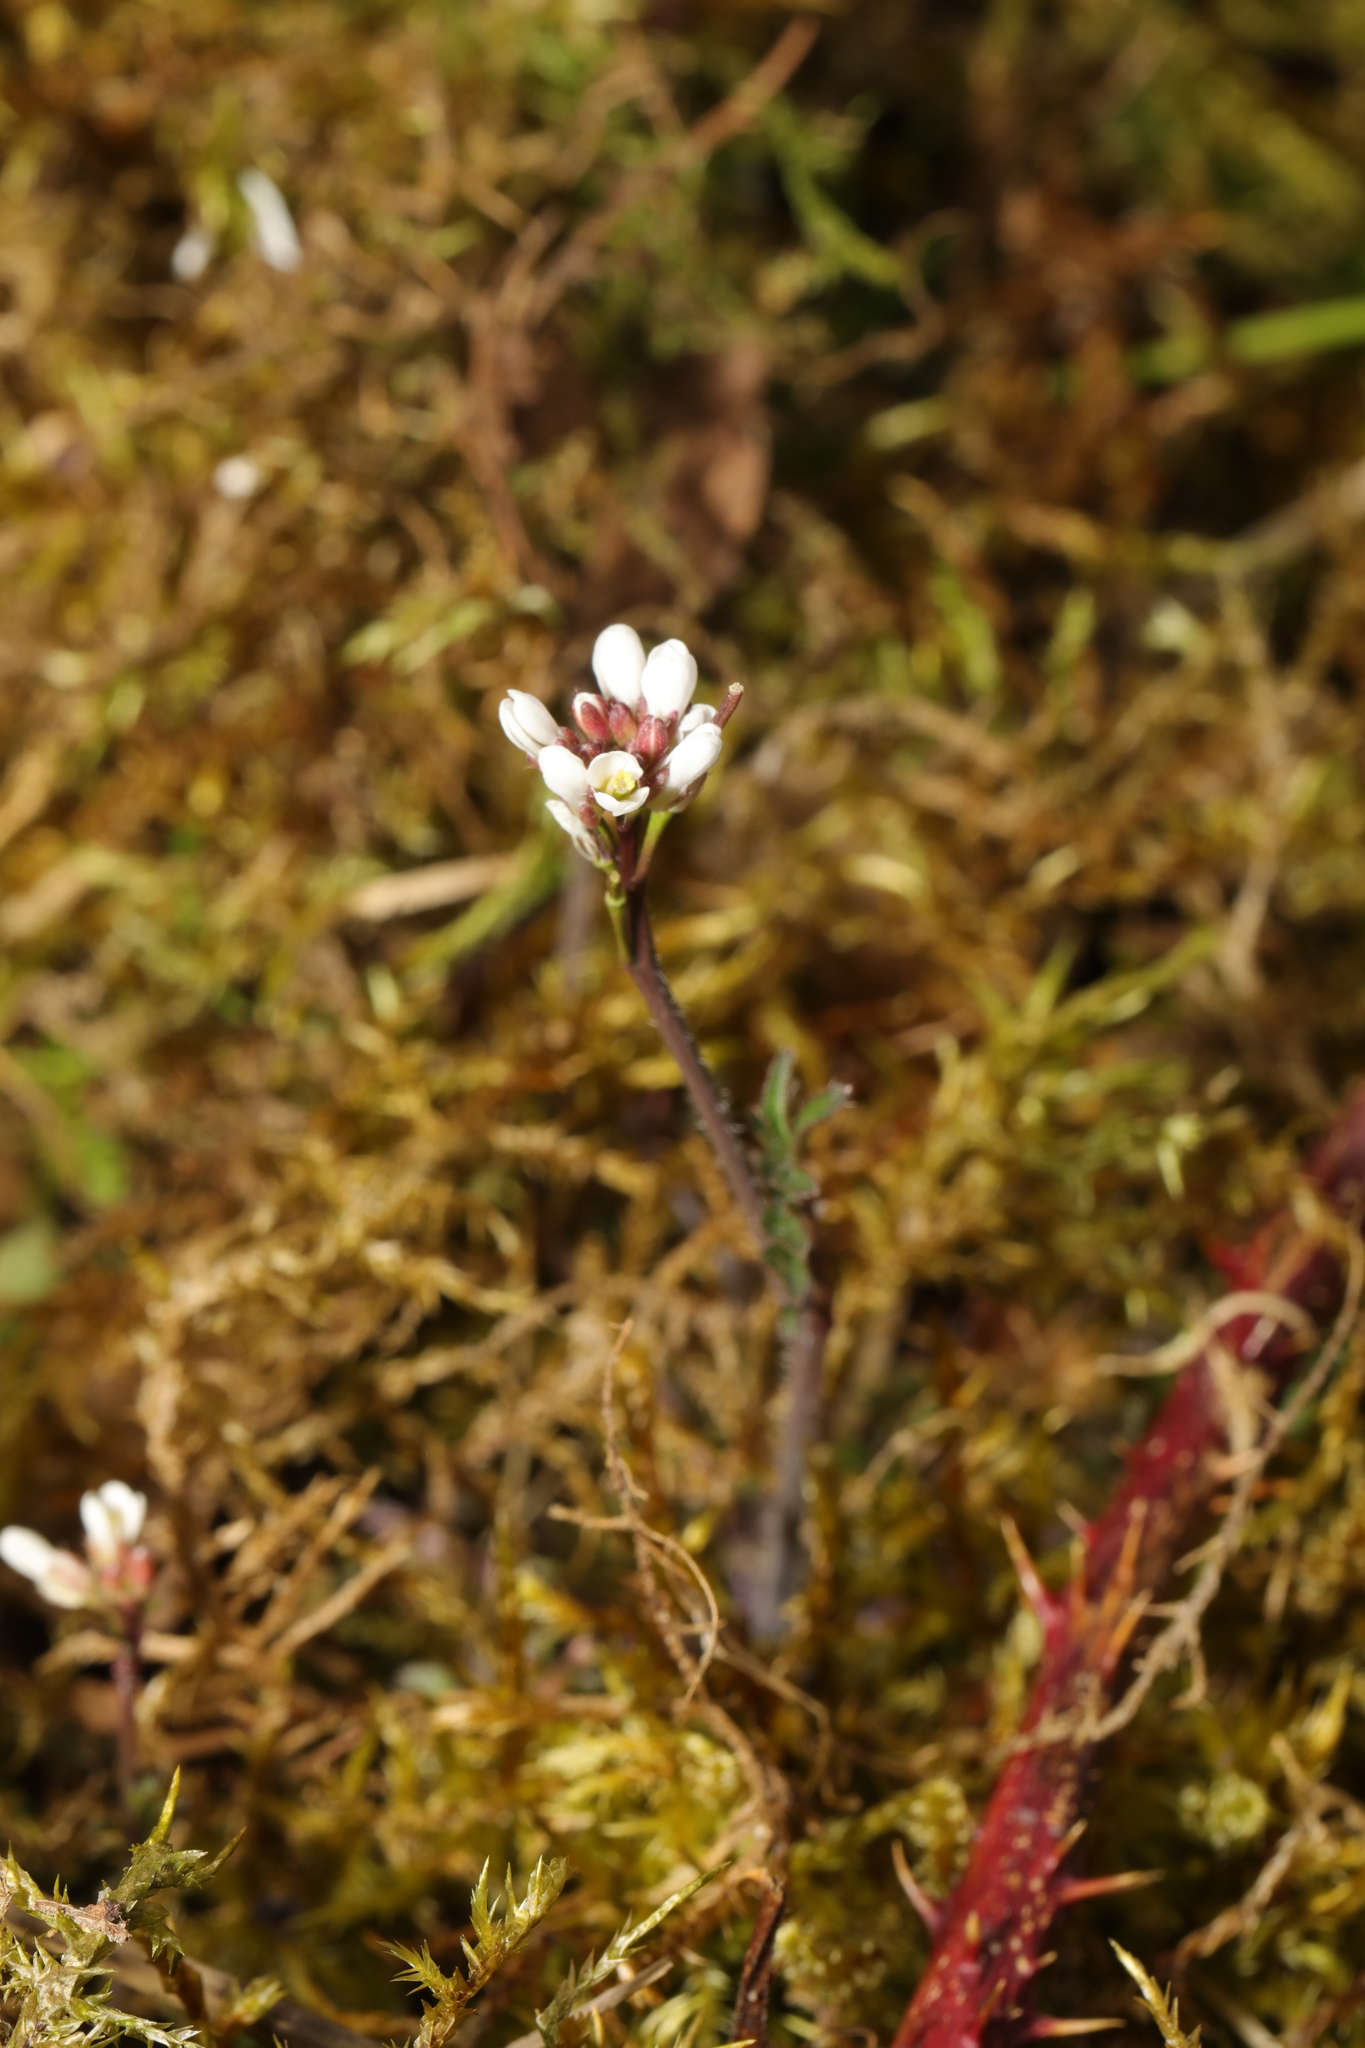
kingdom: Plantae
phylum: Tracheophyta
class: Magnoliopsida
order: Brassicales
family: Brassicaceae
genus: Draba
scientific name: Draba verna
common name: Spring draba
